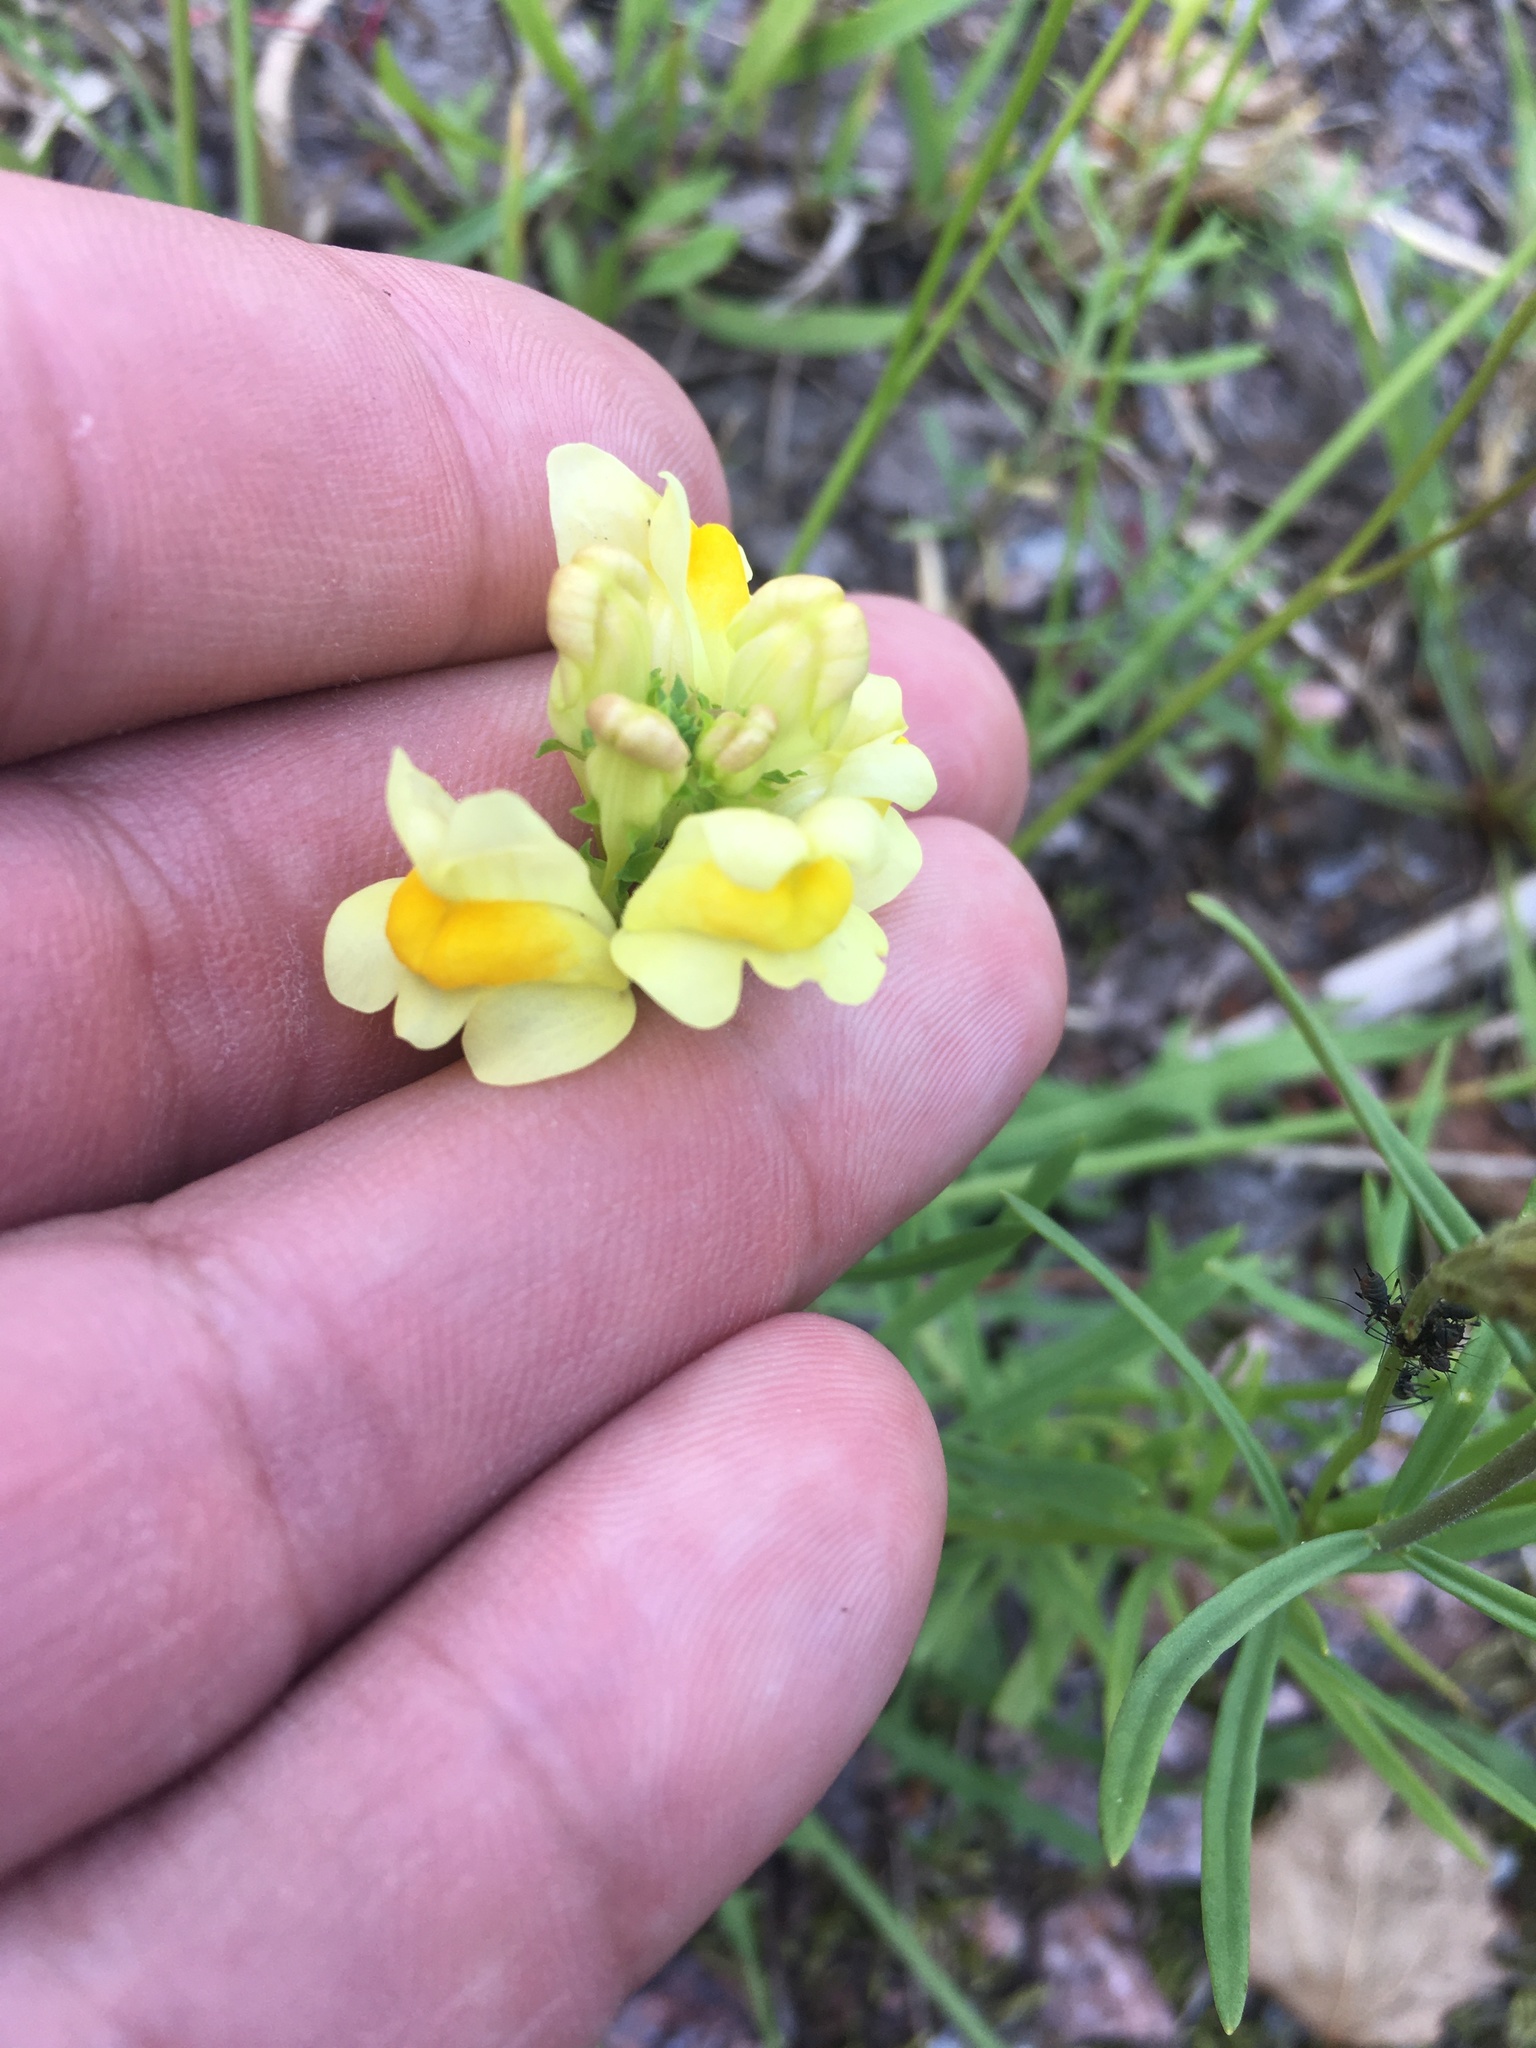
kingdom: Plantae
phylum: Tracheophyta
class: Magnoliopsida
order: Lamiales
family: Plantaginaceae
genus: Linaria
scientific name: Linaria vulgaris
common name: Butter and eggs
